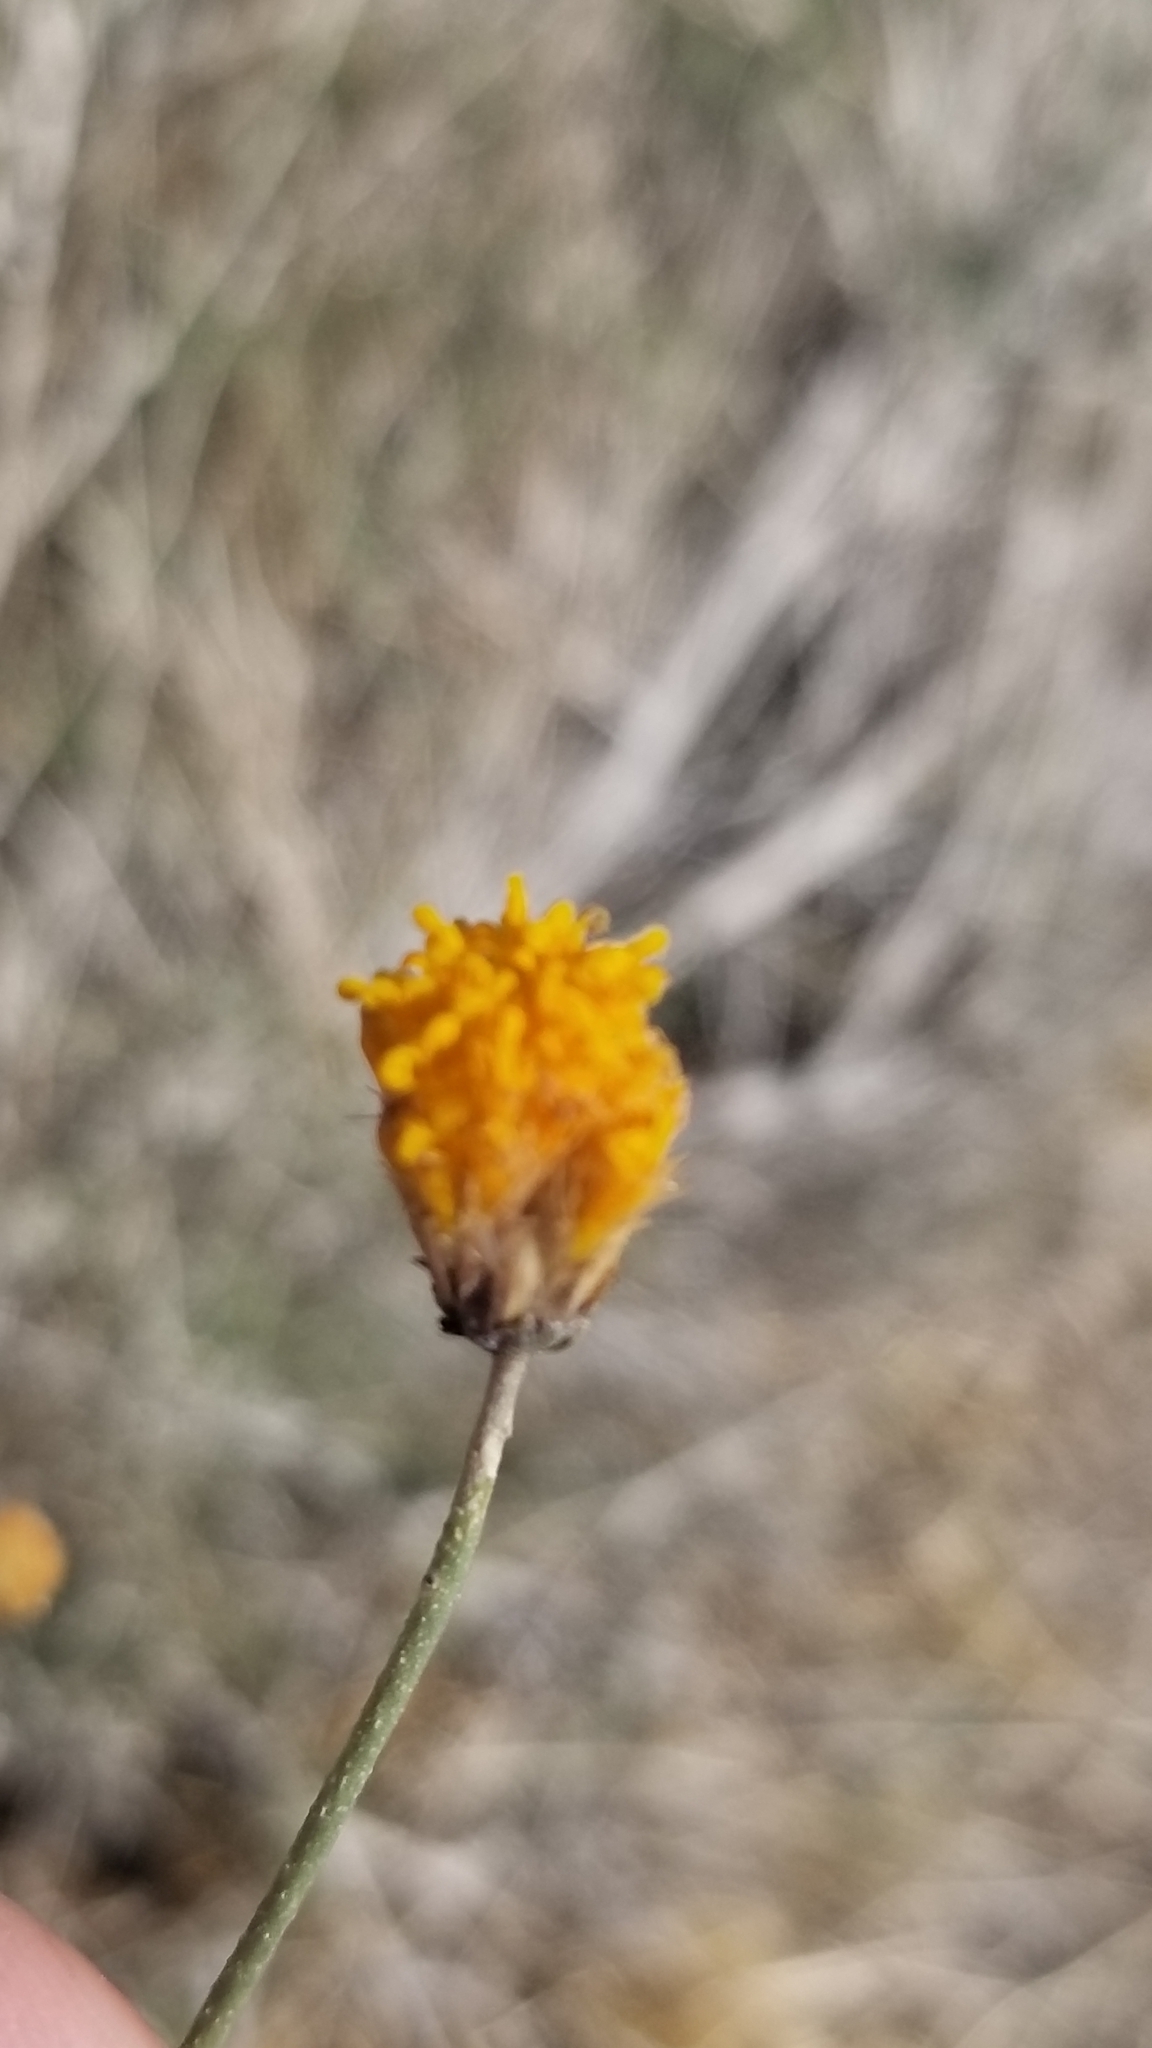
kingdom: Plantae
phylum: Tracheophyta
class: Magnoliopsida
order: Asterales
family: Asteraceae
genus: Bebbia
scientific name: Bebbia juncea
